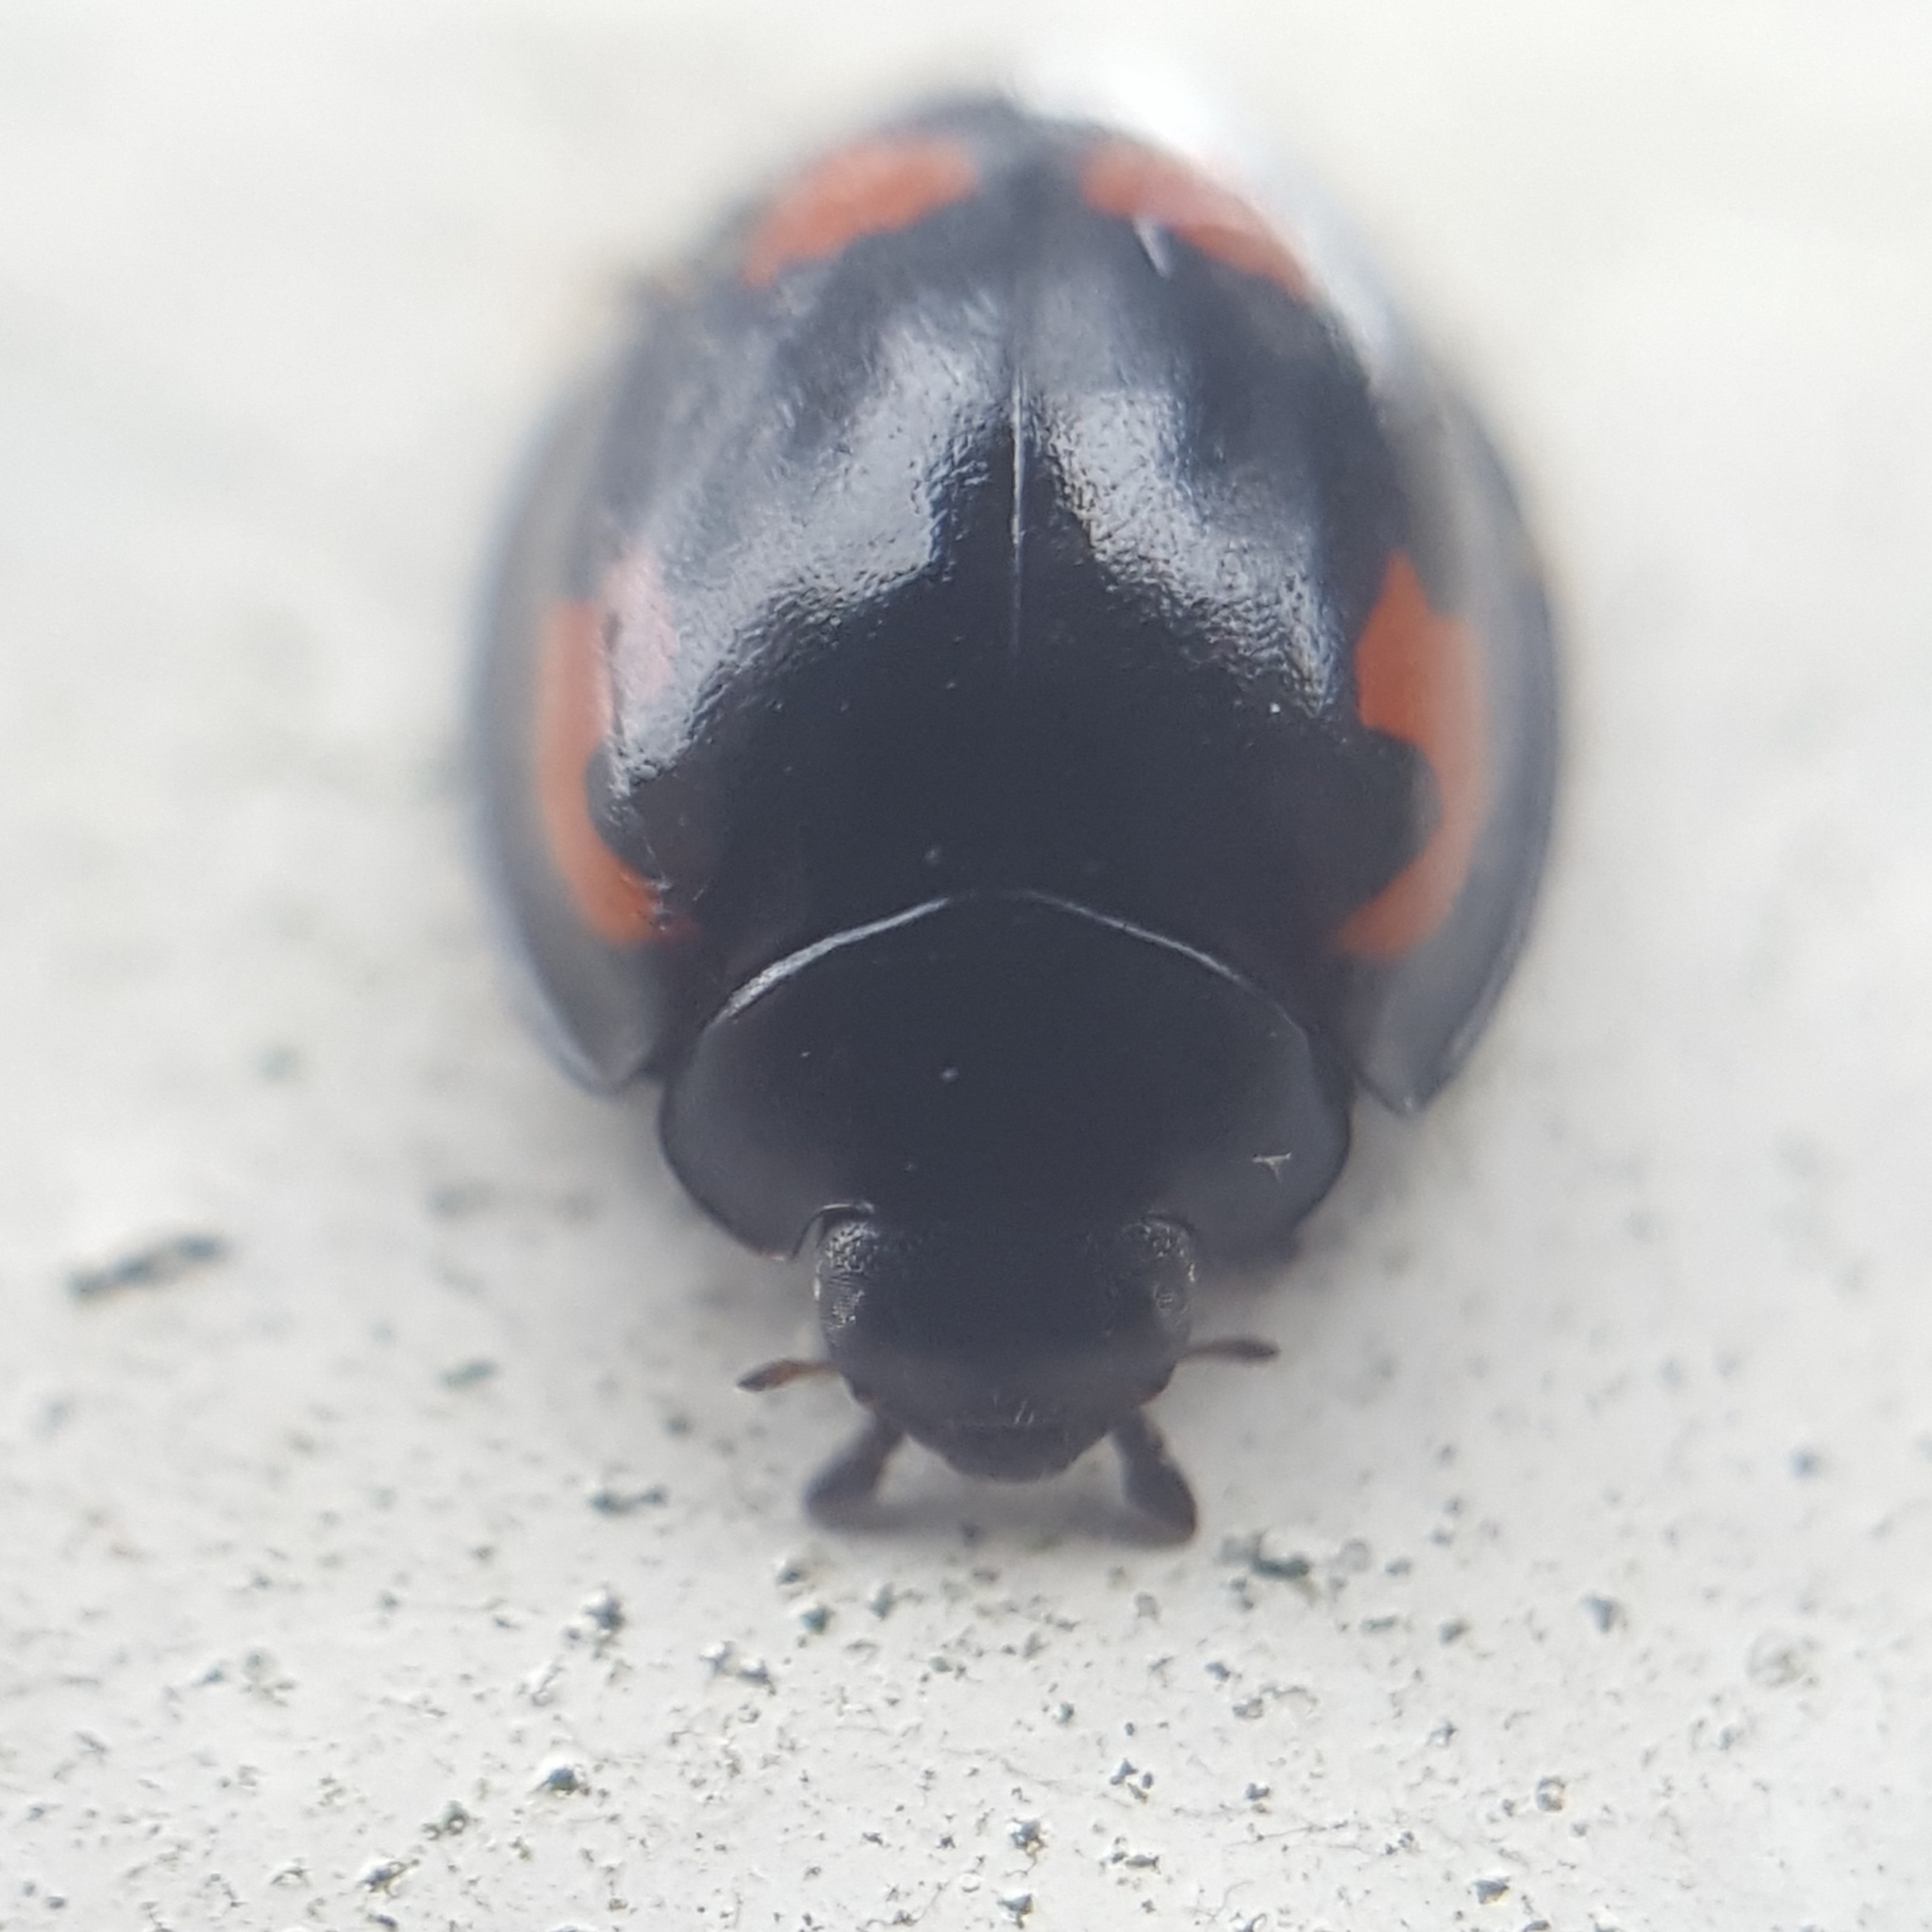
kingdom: Animalia
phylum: Arthropoda
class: Insecta
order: Coleoptera
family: Coccinellidae
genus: Brumus
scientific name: Brumus quadripustulatus
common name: Ladybird beetle
